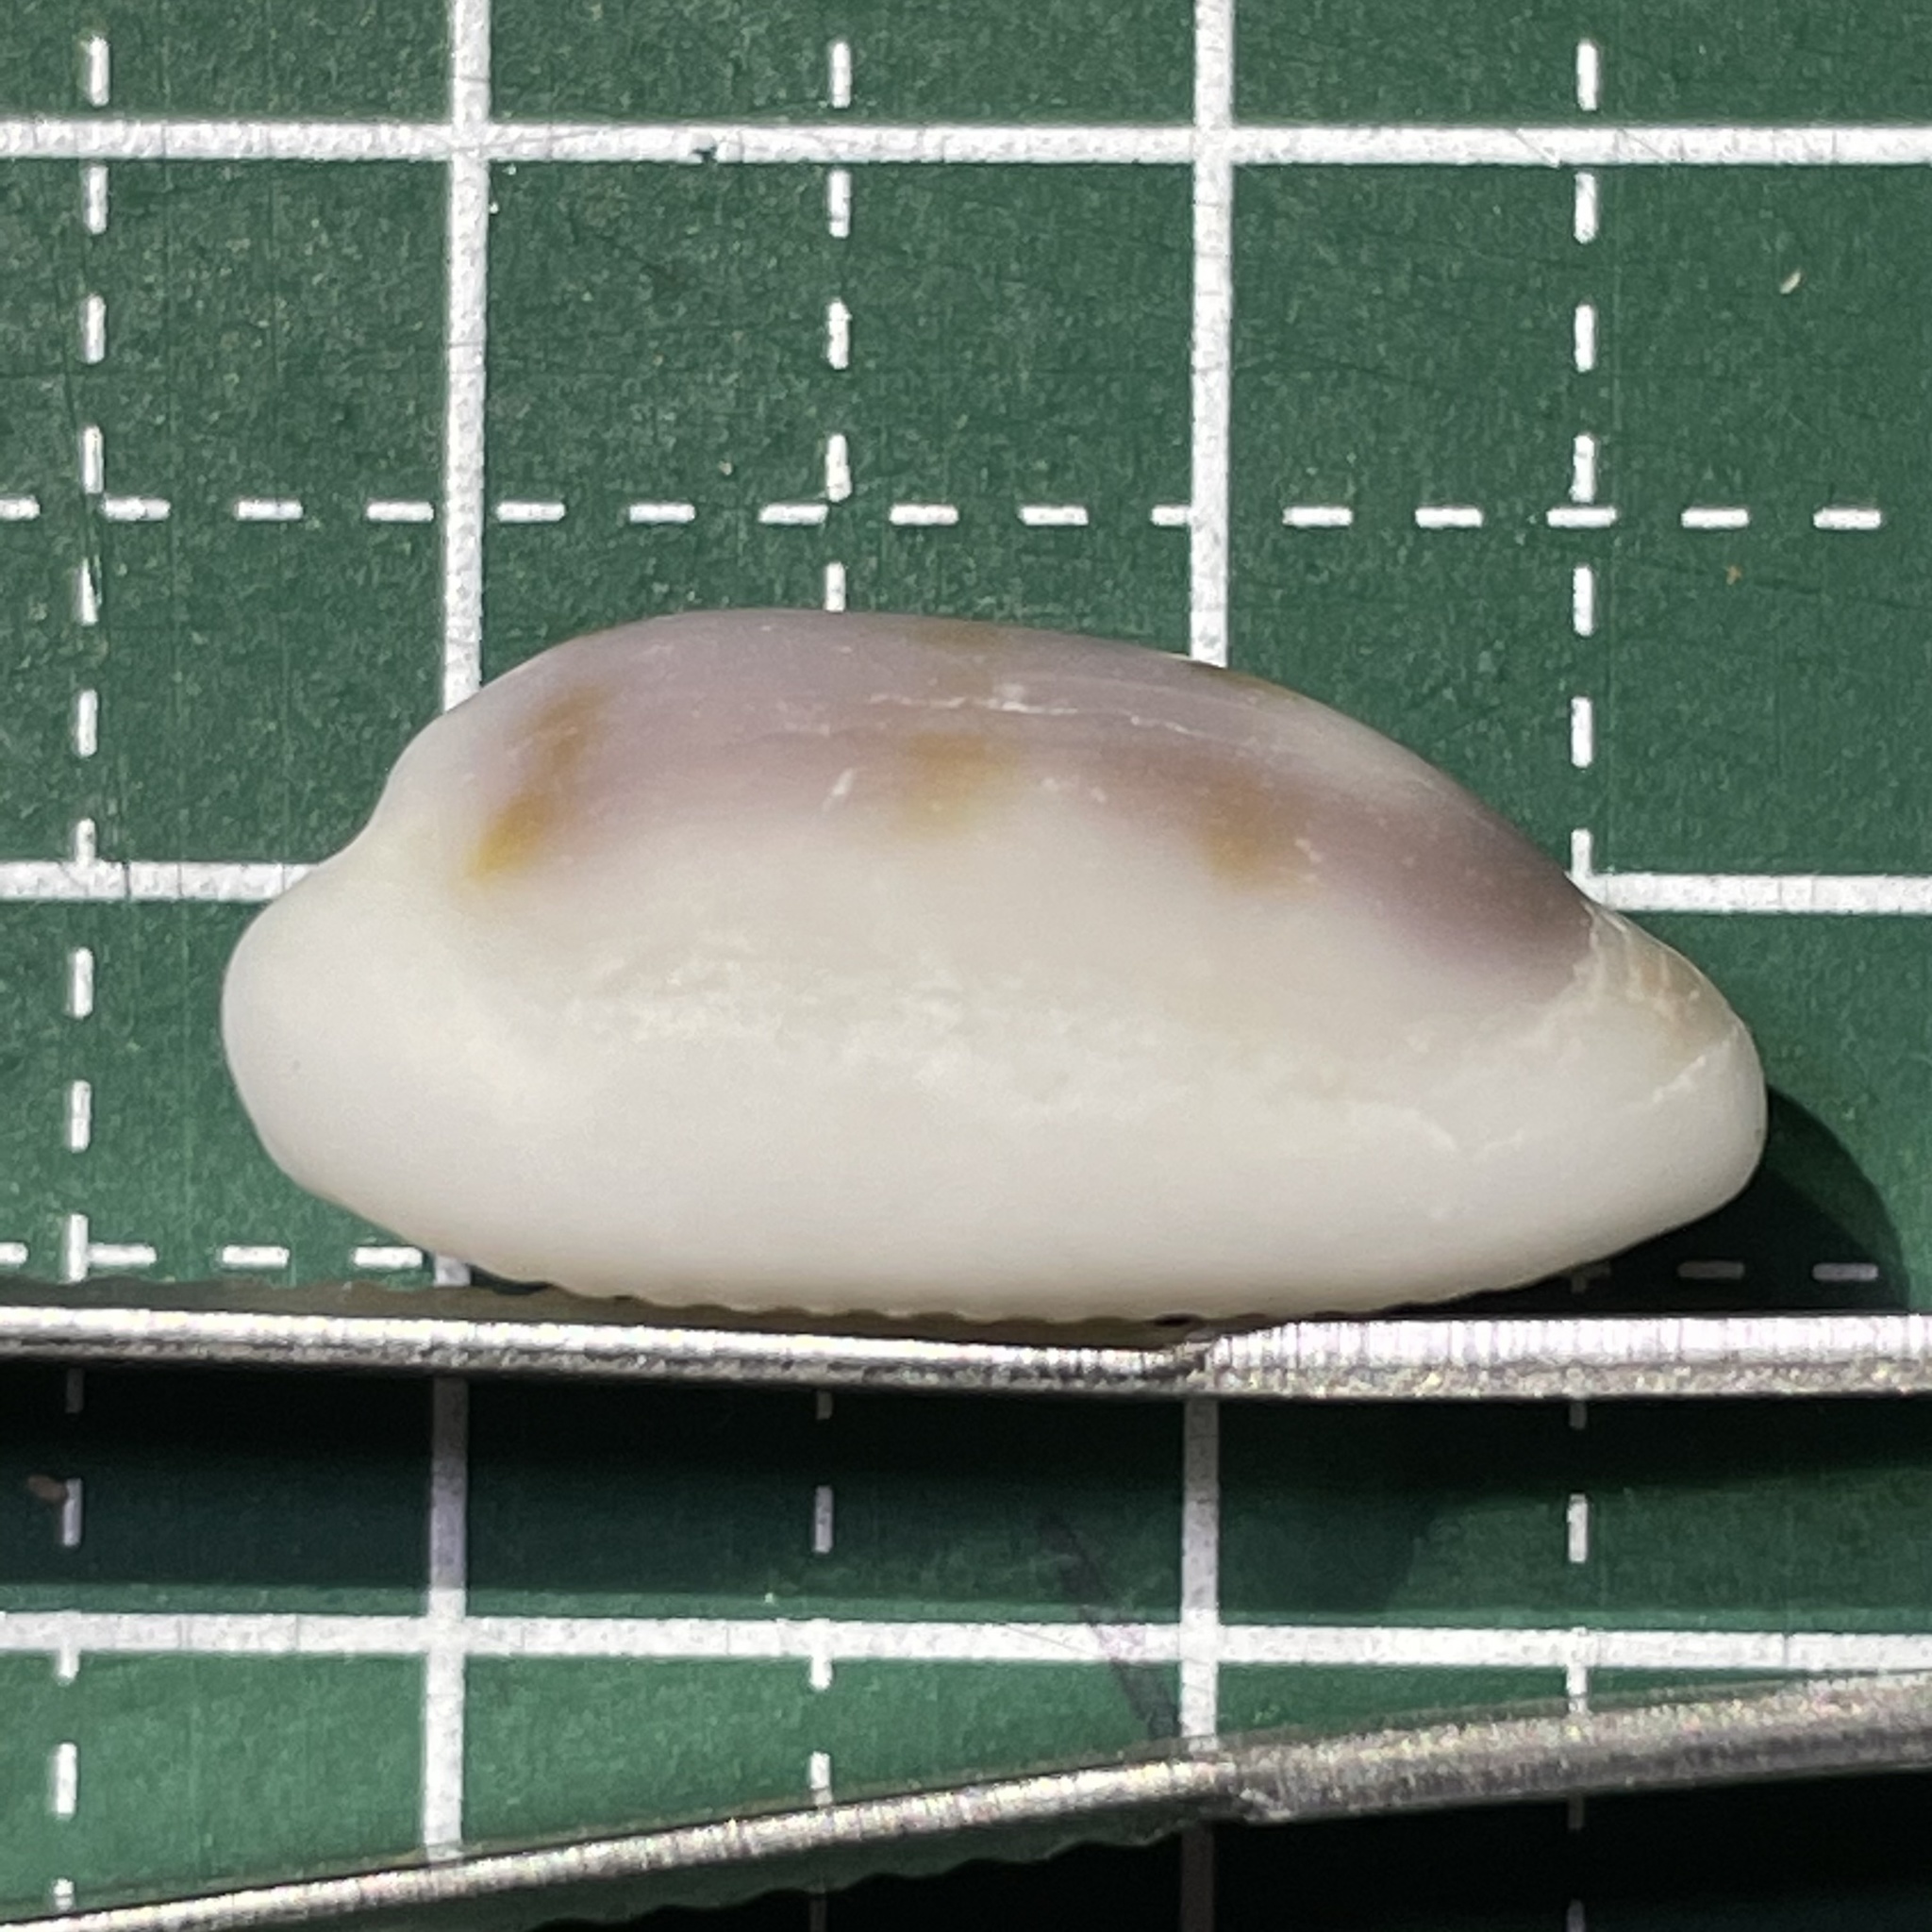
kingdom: Animalia
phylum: Mollusca
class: Gastropoda
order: Littorinimorpha
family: Cypraeidae
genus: Blasicrura
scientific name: Blasicrura pallidula
